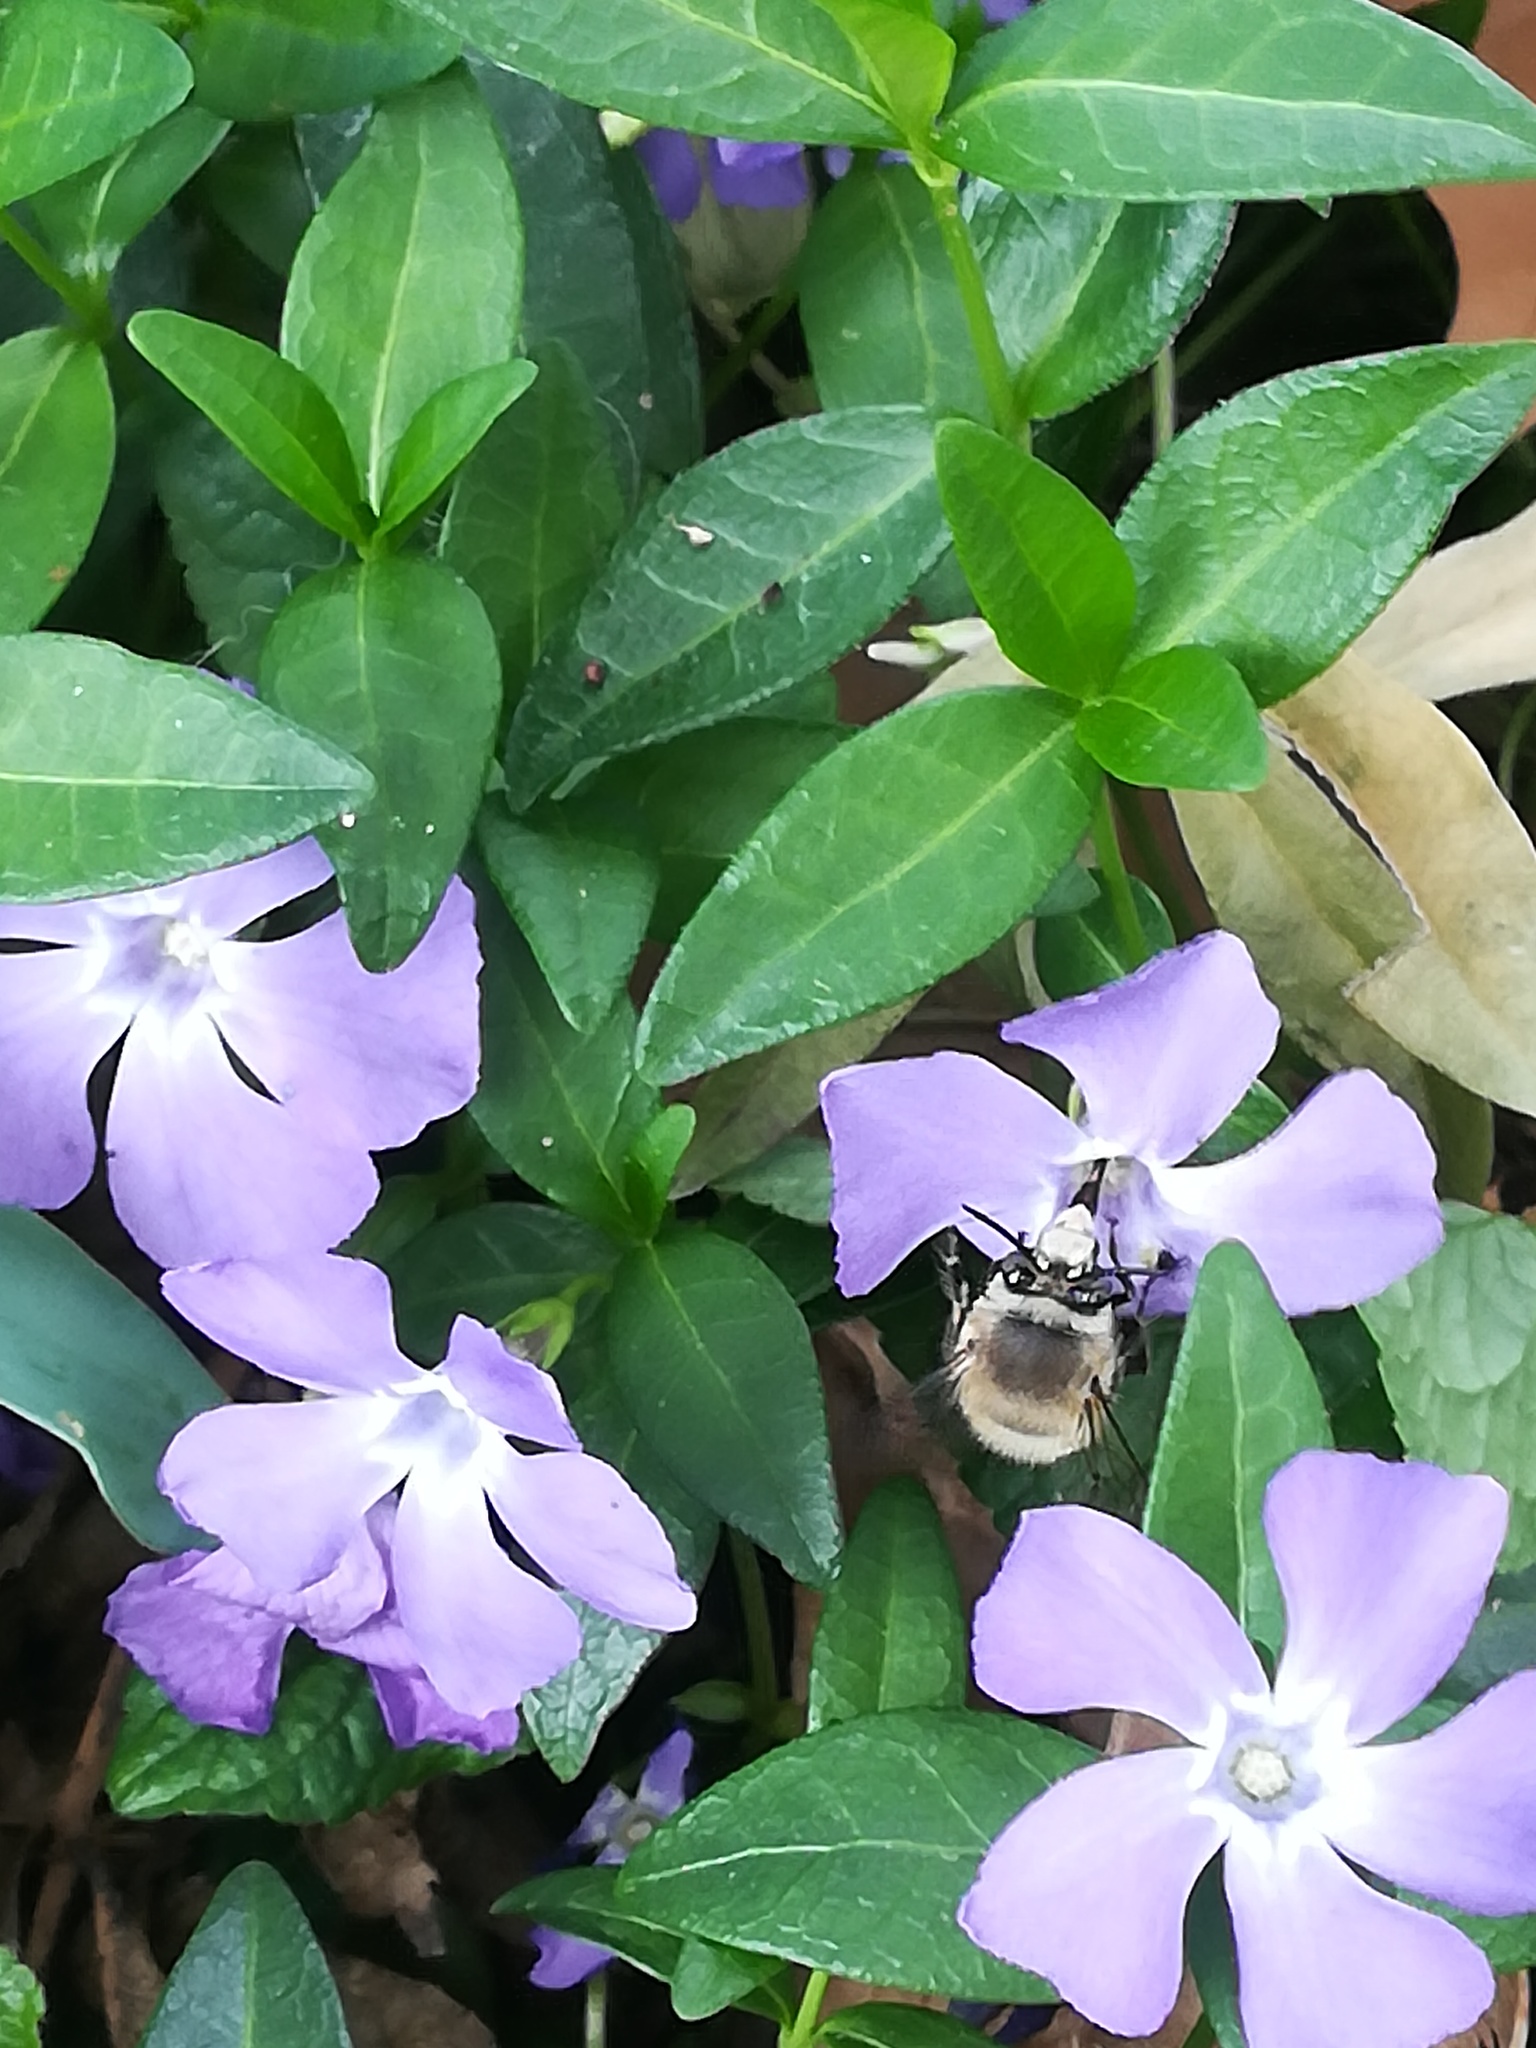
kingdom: Animalia
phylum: Arthropoda
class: Insecta
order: Hymenoptera
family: Apidae
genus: Anthophora
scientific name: Anthophora plumipes
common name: Hairy-footed flower bee
